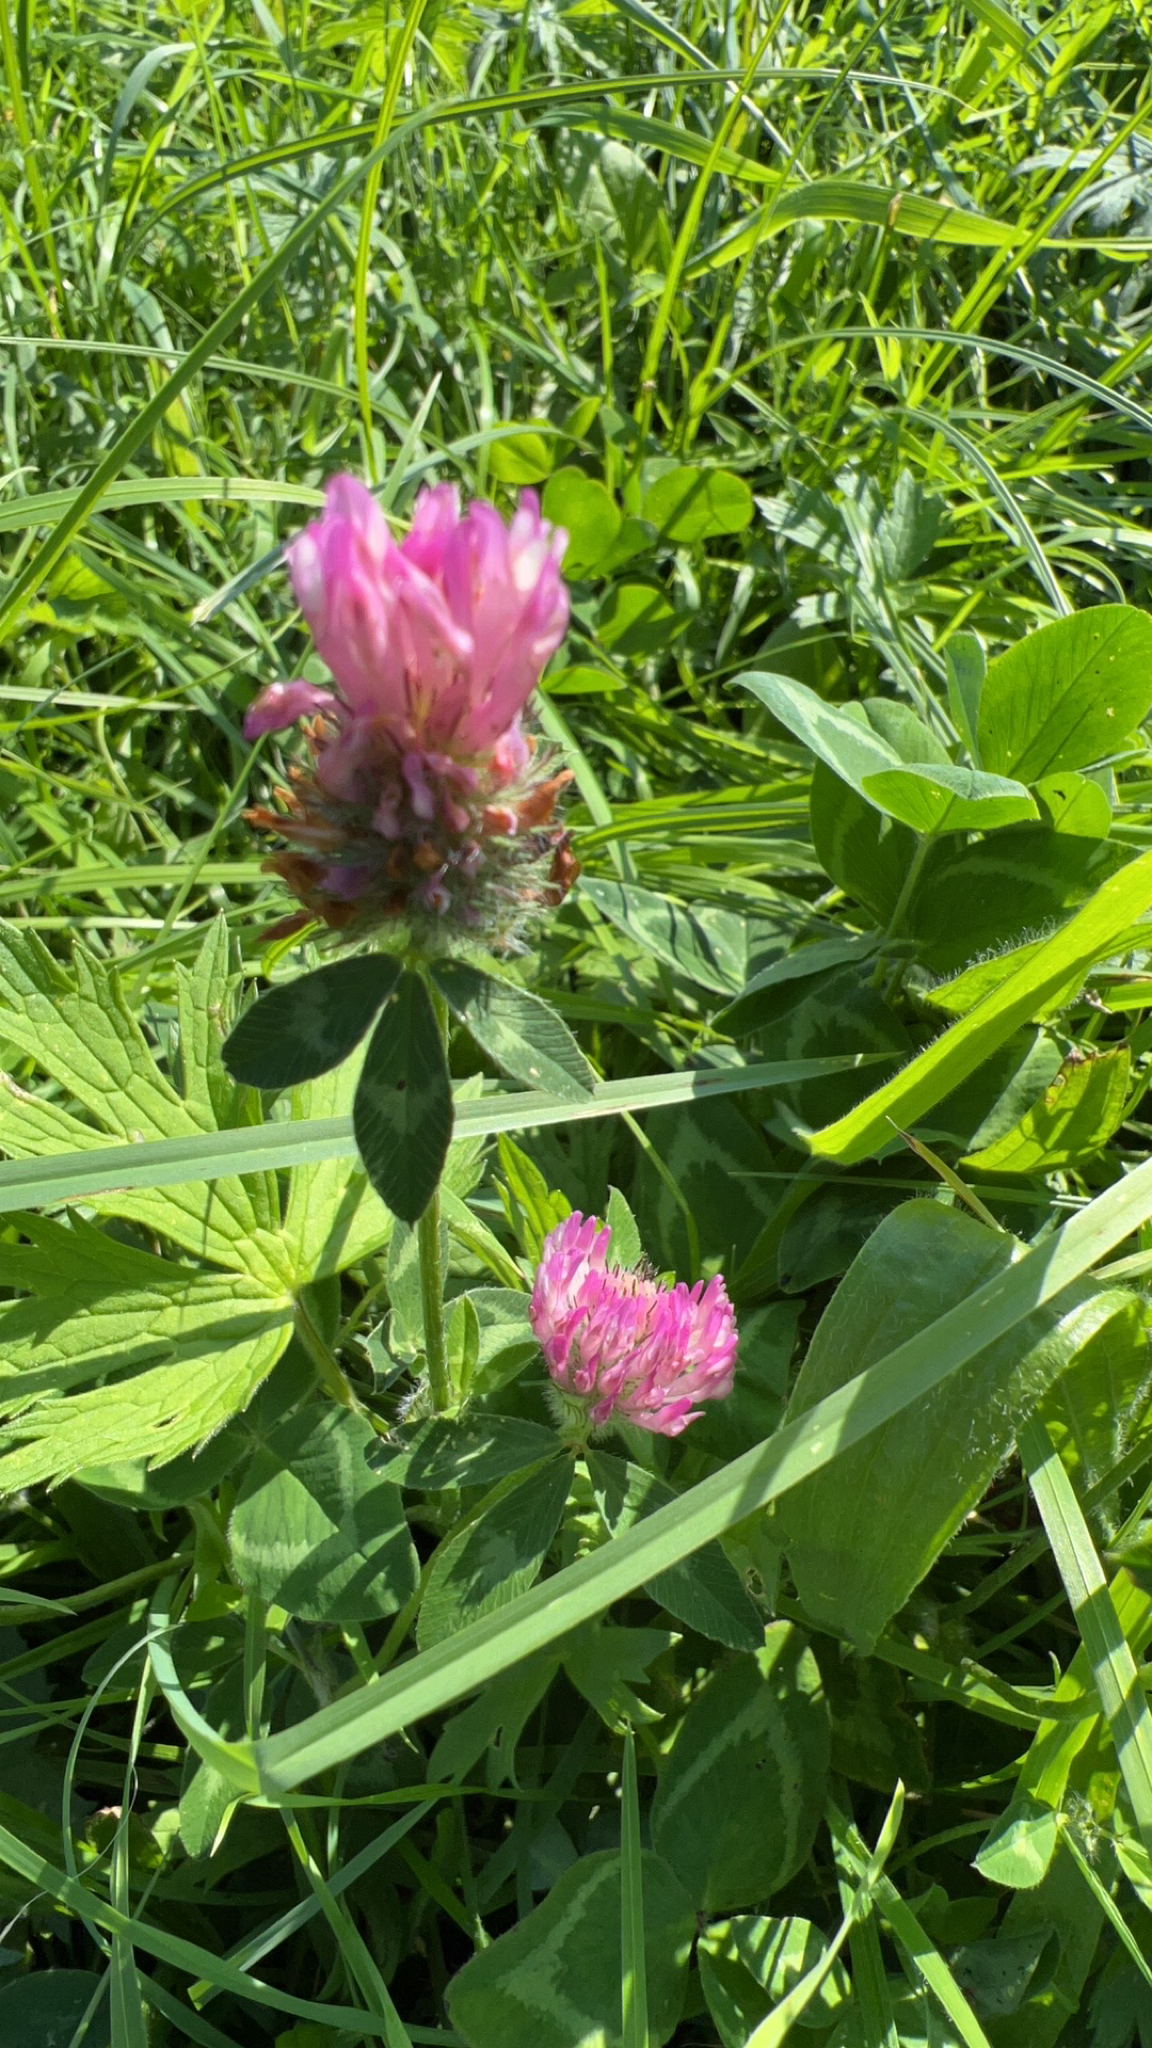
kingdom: Plantae
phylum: Tracheophyta
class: Magnoliopsida
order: Fabales
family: Fabaceae
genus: Trifolium
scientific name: Trifolium pratense
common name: Red clover
